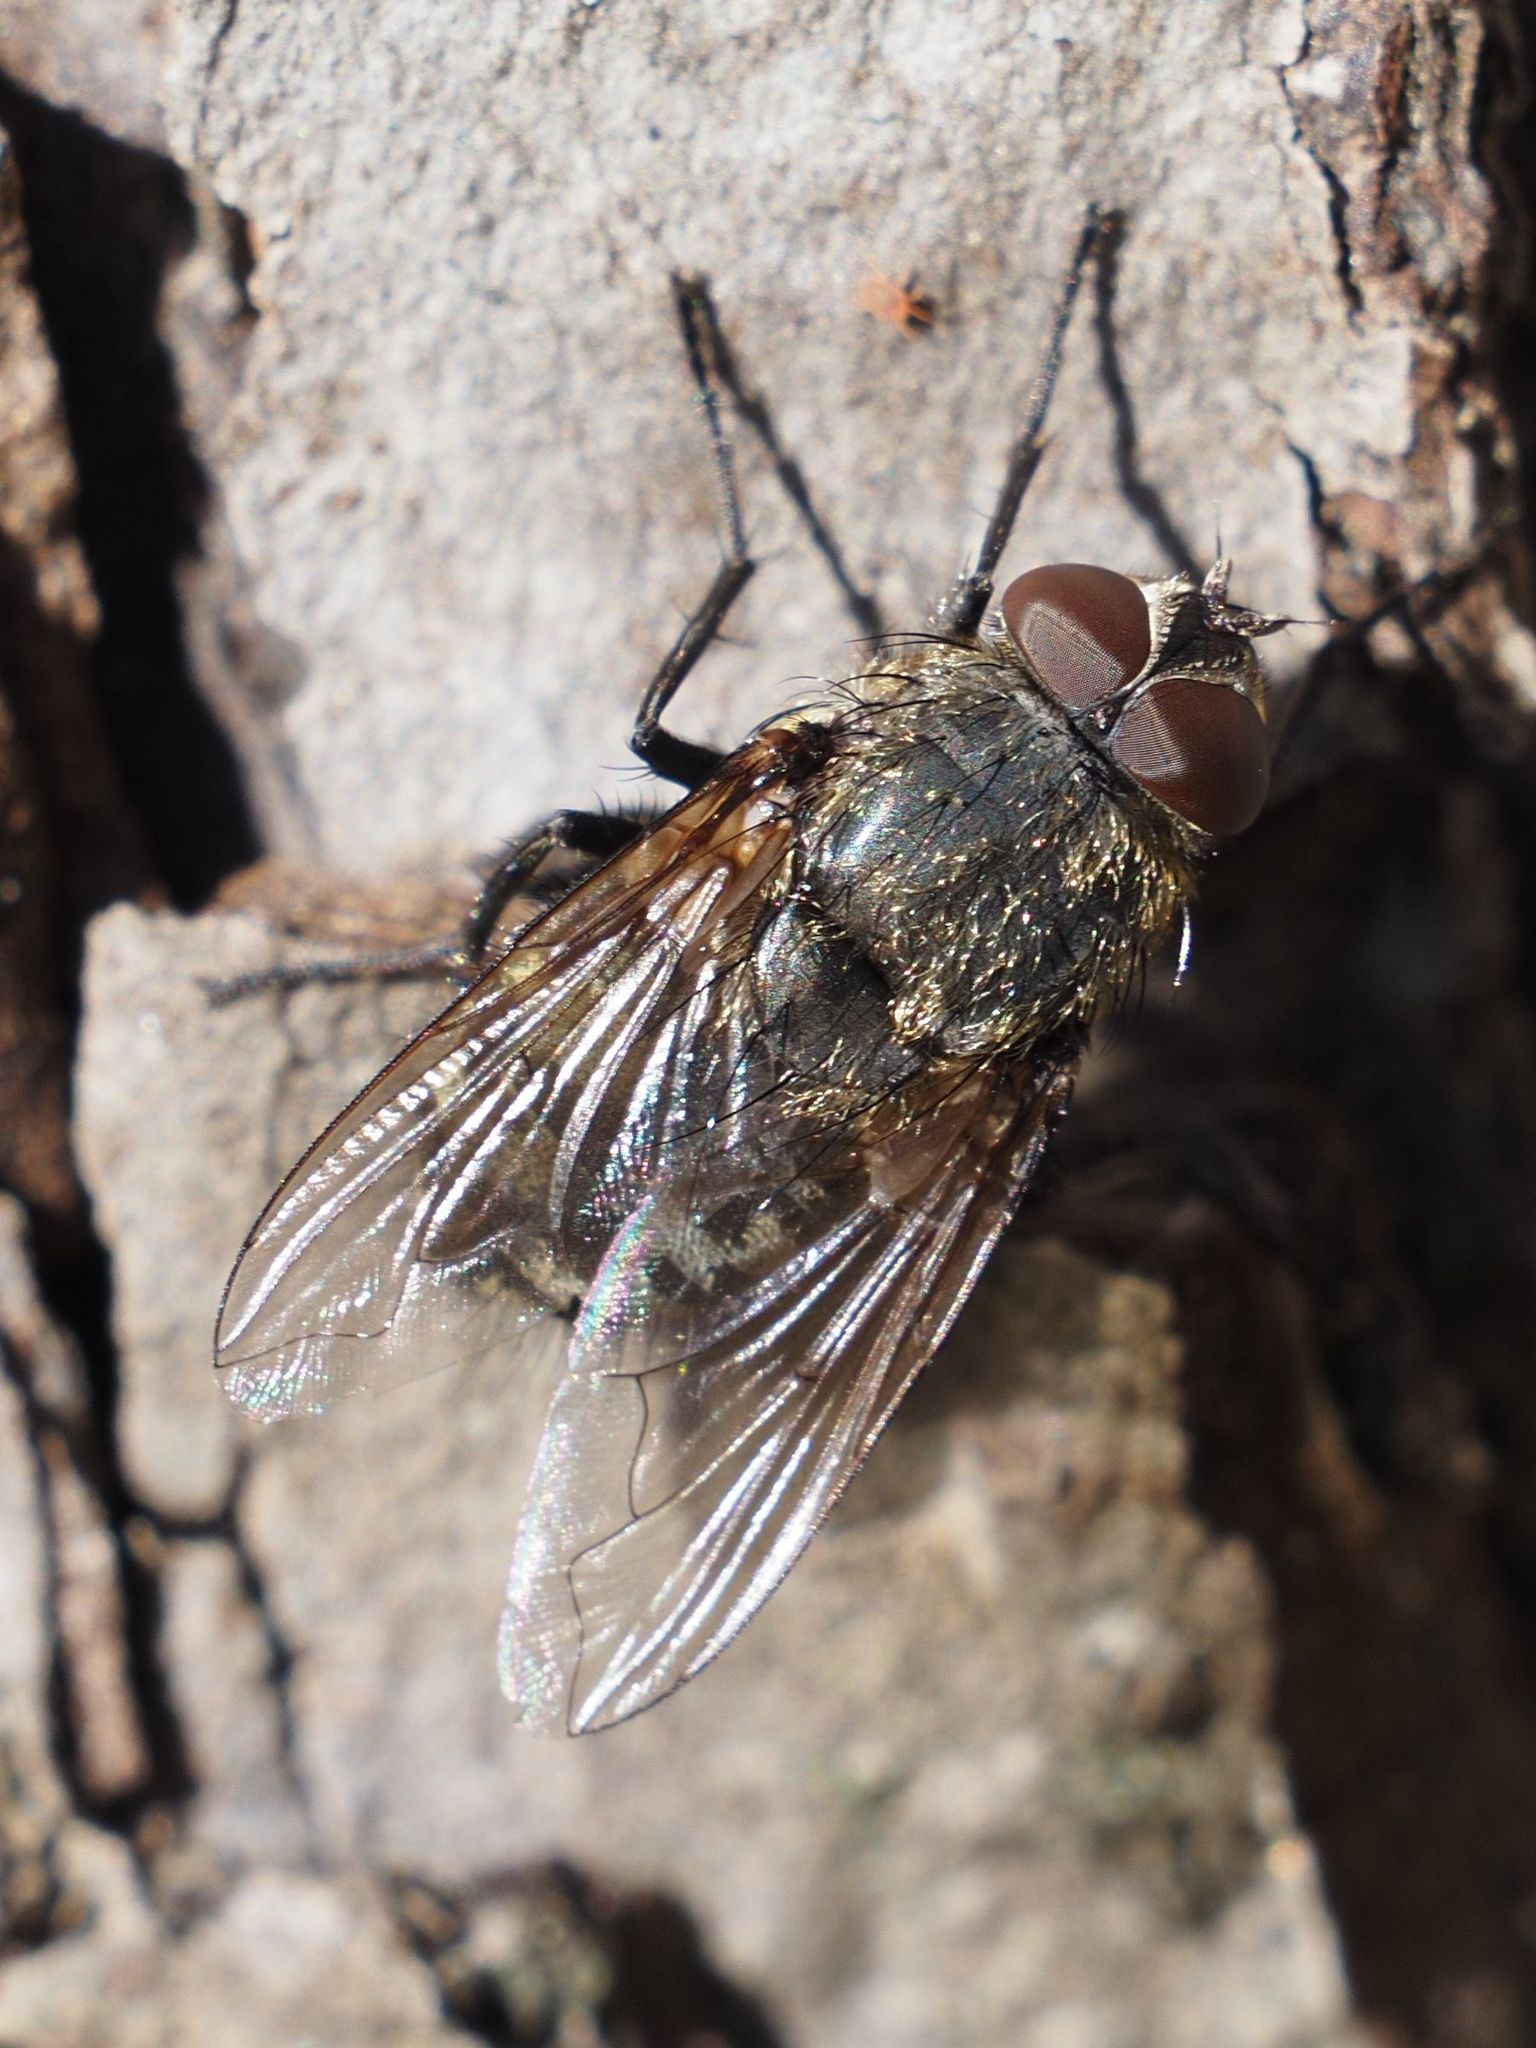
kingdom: Animalia
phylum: Arthropoda
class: Insecta
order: Diptera
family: Polleniidae
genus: Pollenia
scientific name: Pollenia angustigena
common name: Narrow-cheeked clusterfly
